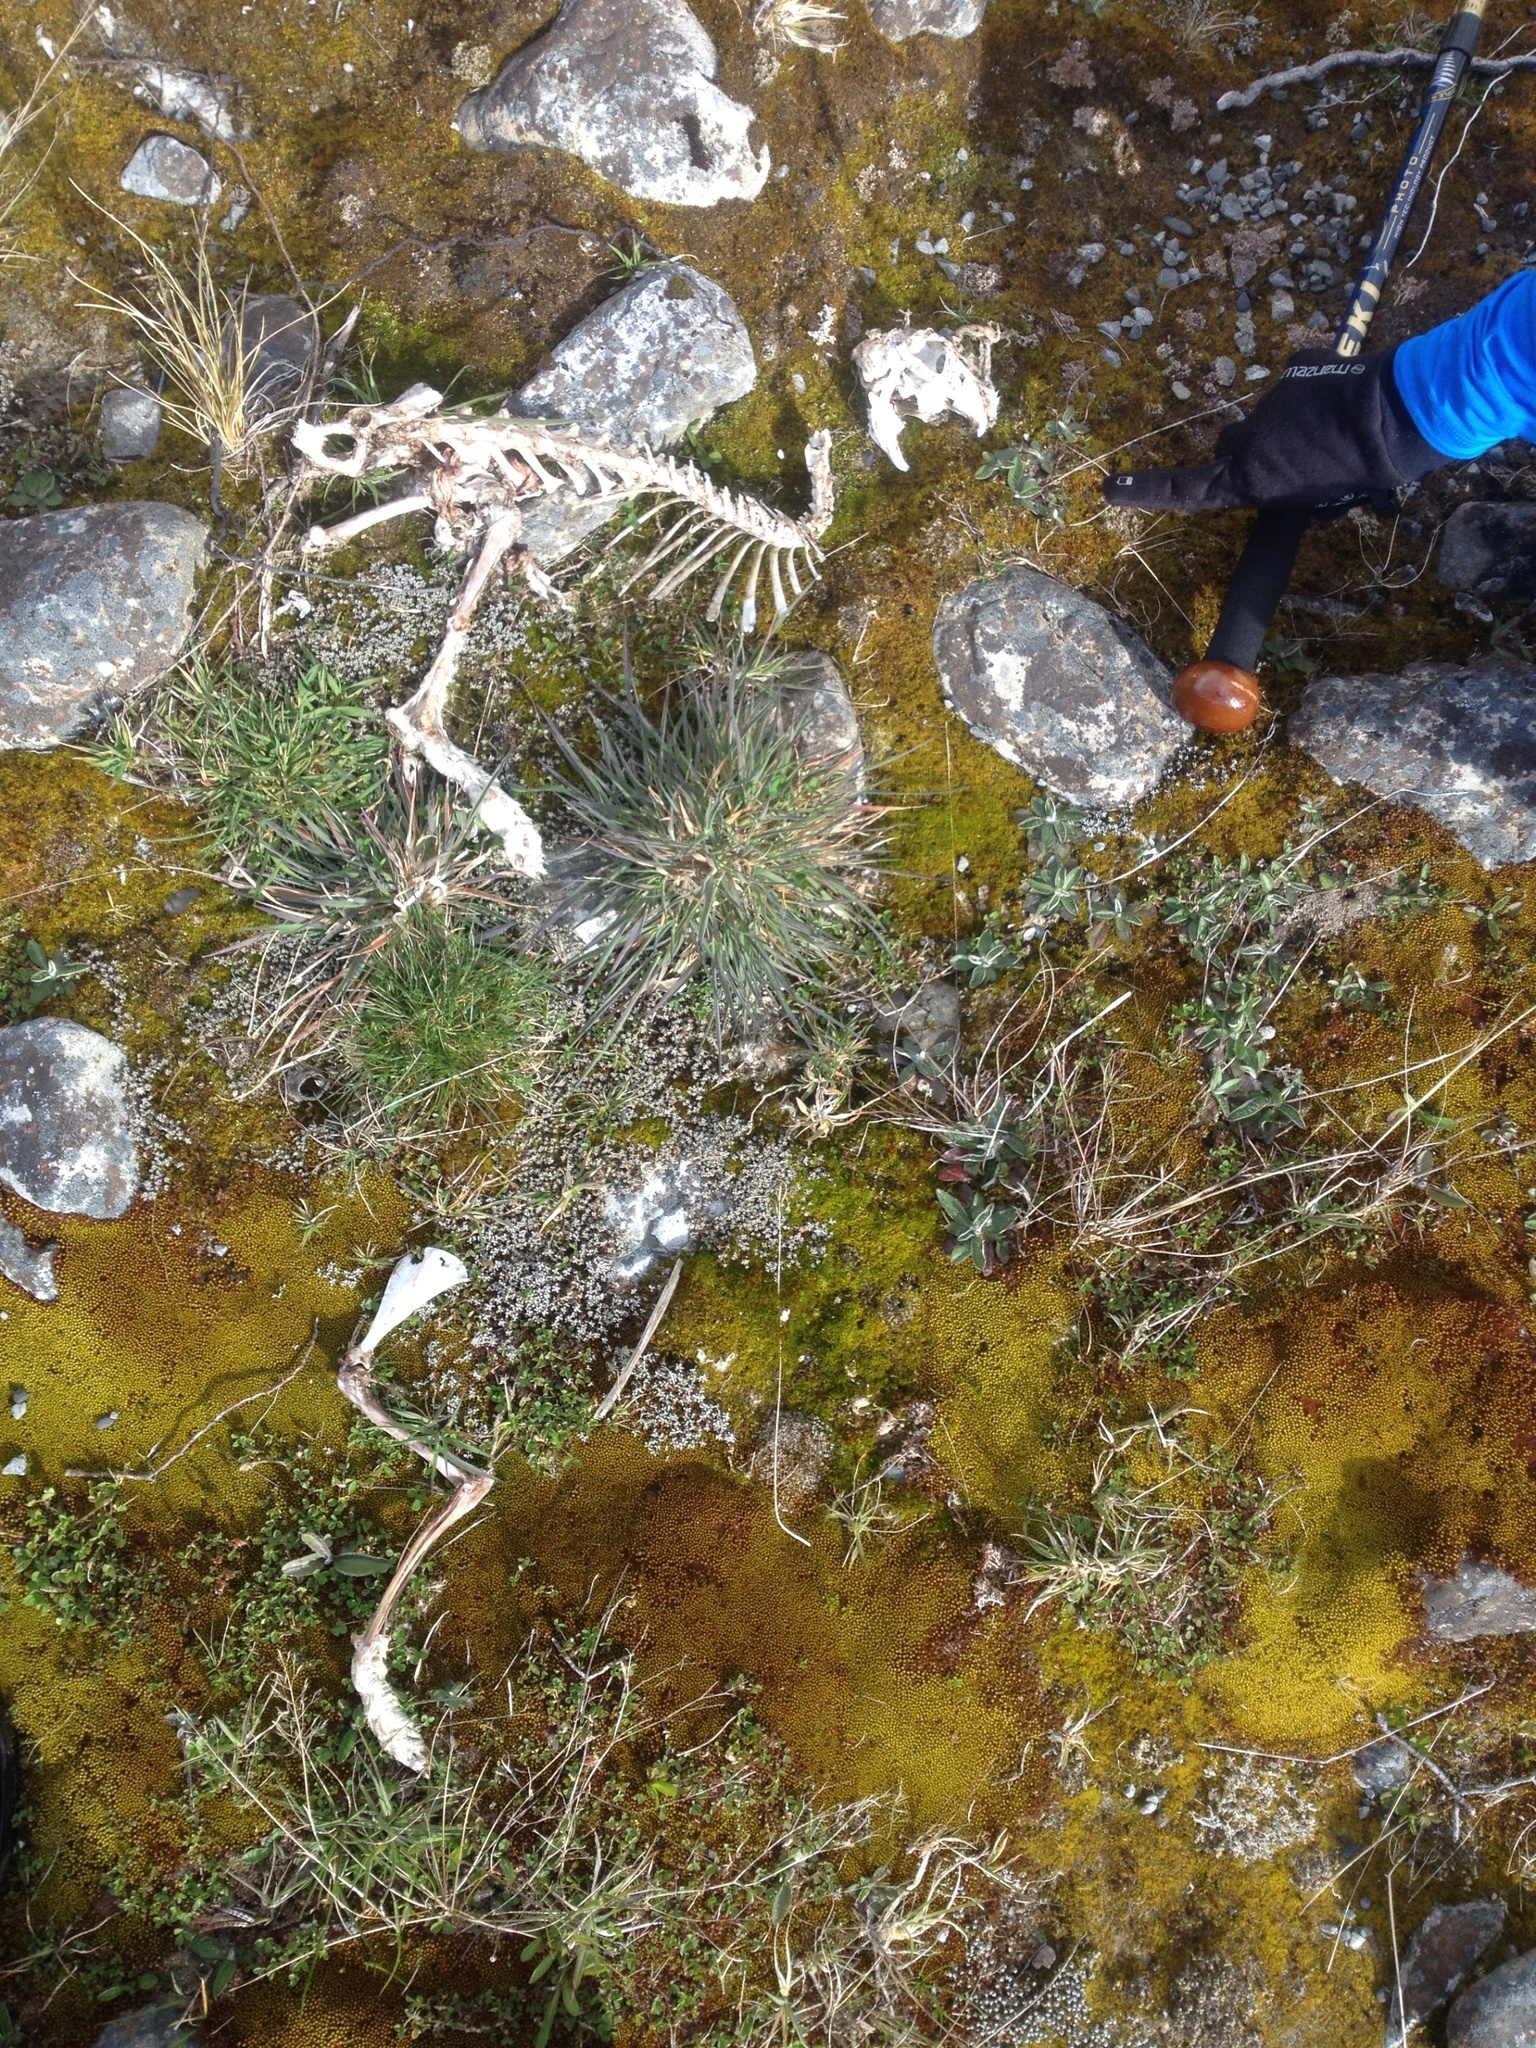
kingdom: Animalia
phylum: Chordata
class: Mammalia
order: Lagomorpha
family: Leporidae
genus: Lepus
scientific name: Lepus europaeus
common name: European hare
